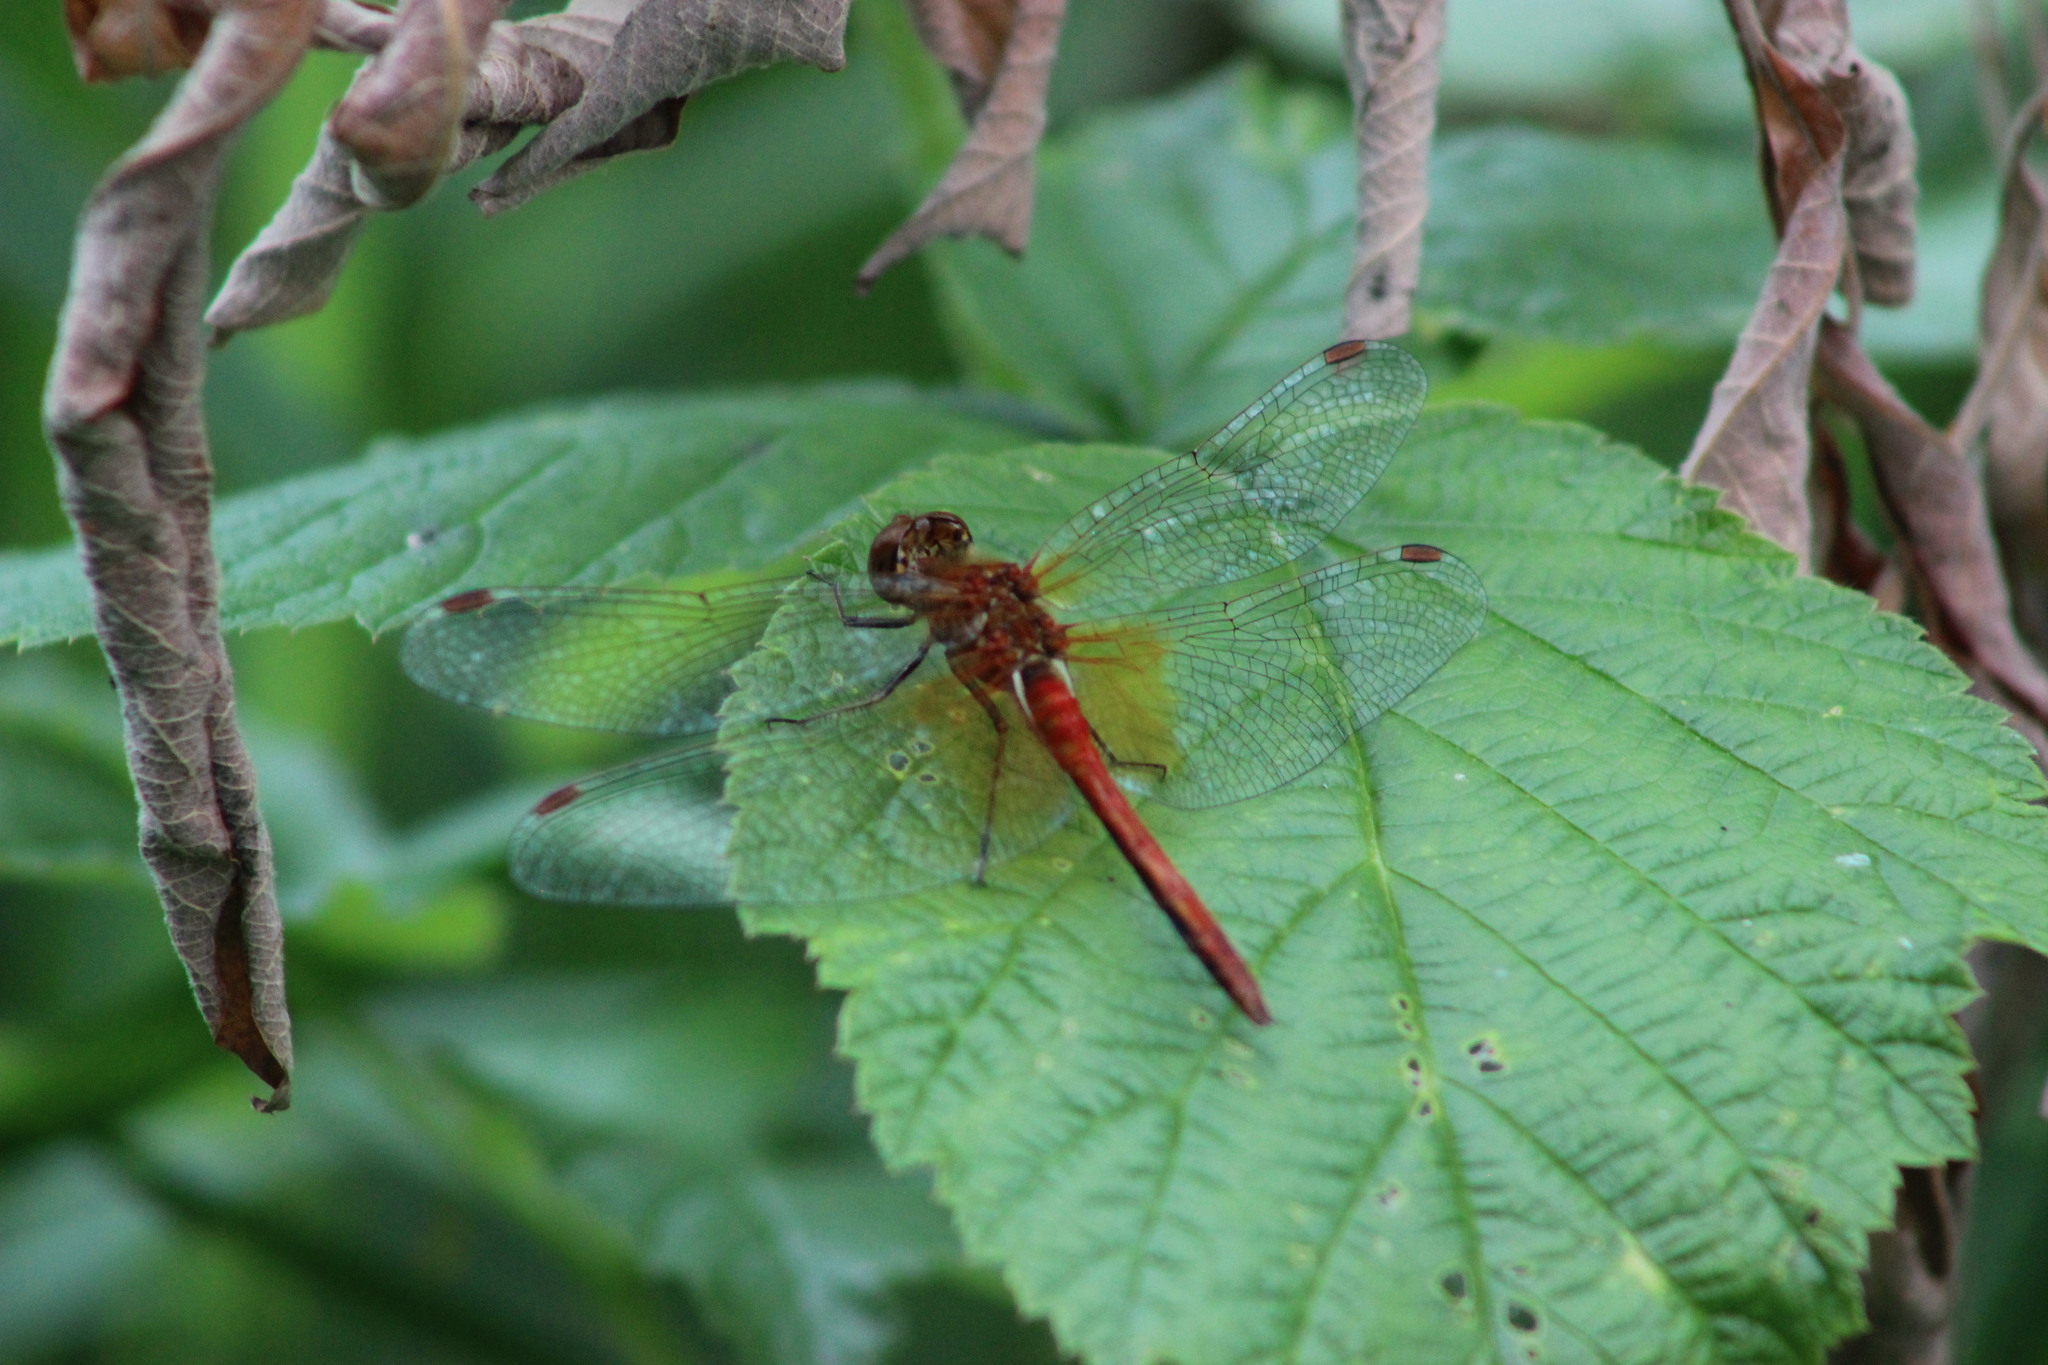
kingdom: Animalia
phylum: Arthropoda
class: Insecta
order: Odonata
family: Libellulidae
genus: Sympetrum
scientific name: Sympetrum flaveolum
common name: Yellow-winged darter
